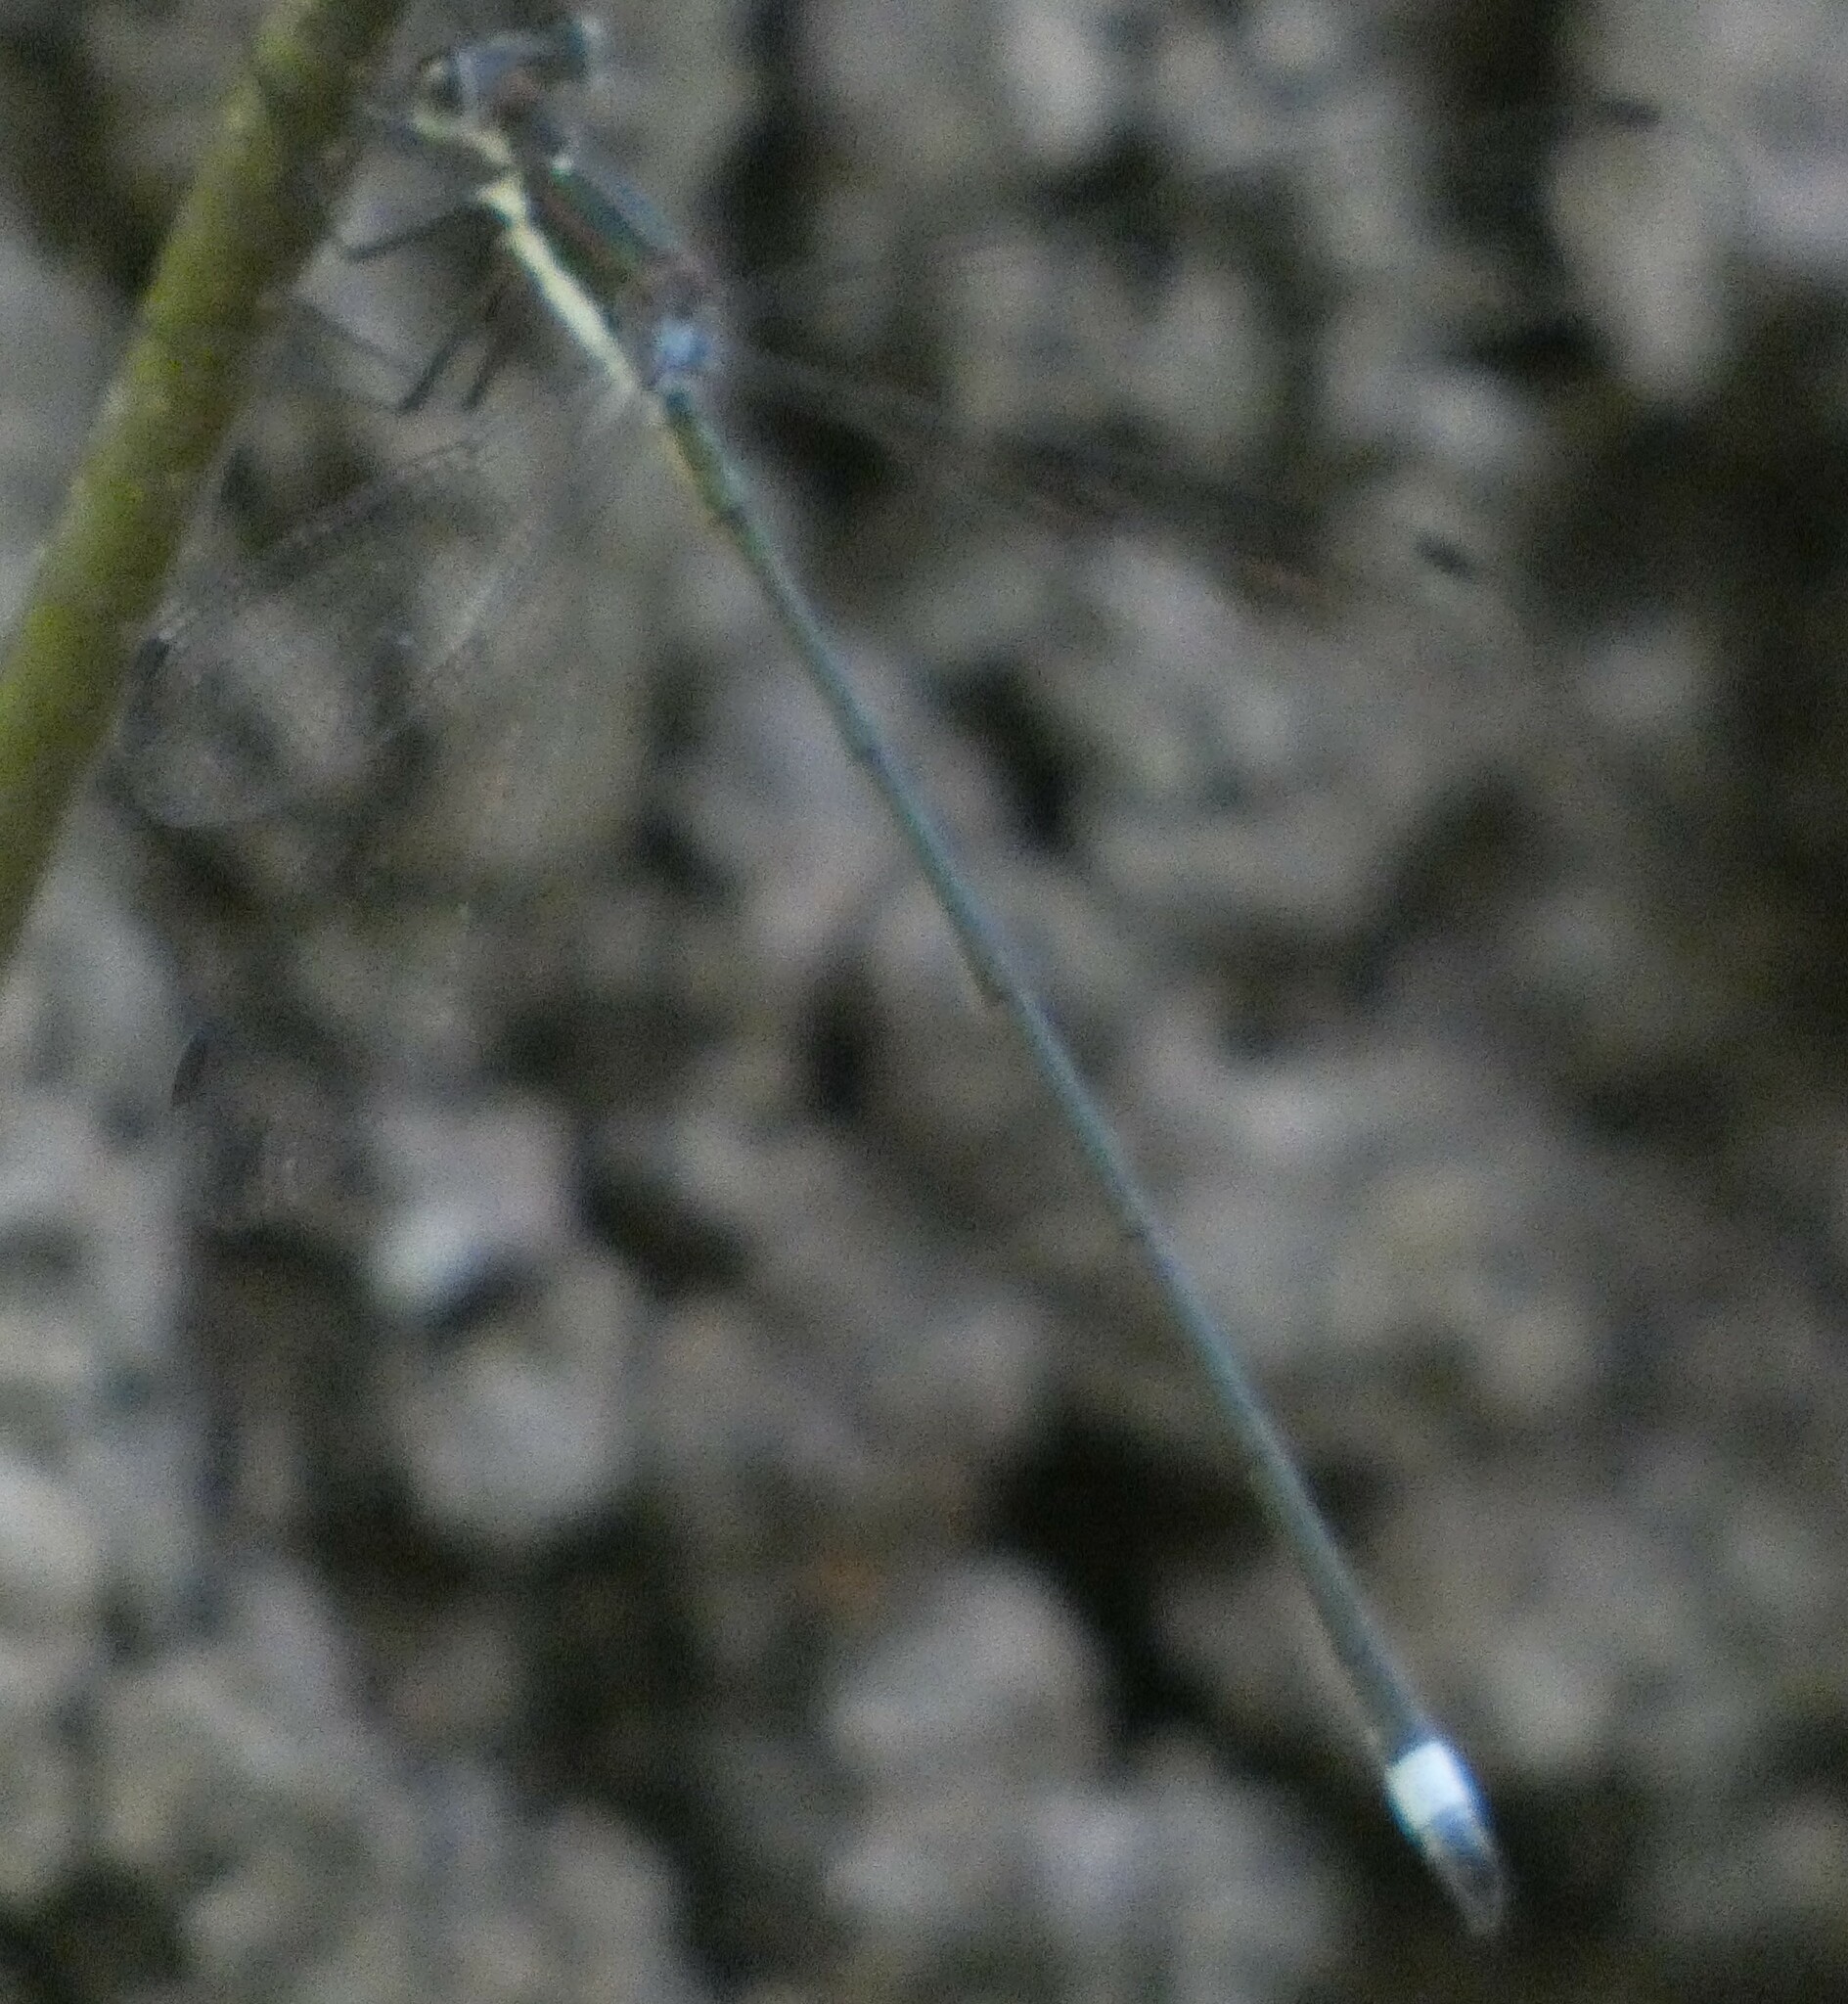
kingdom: Animalia
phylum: Arthropoda
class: Insecta
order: Odonata
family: Lestidae
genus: Lestes
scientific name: Lestes vigilax
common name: Swamp spreadwing
